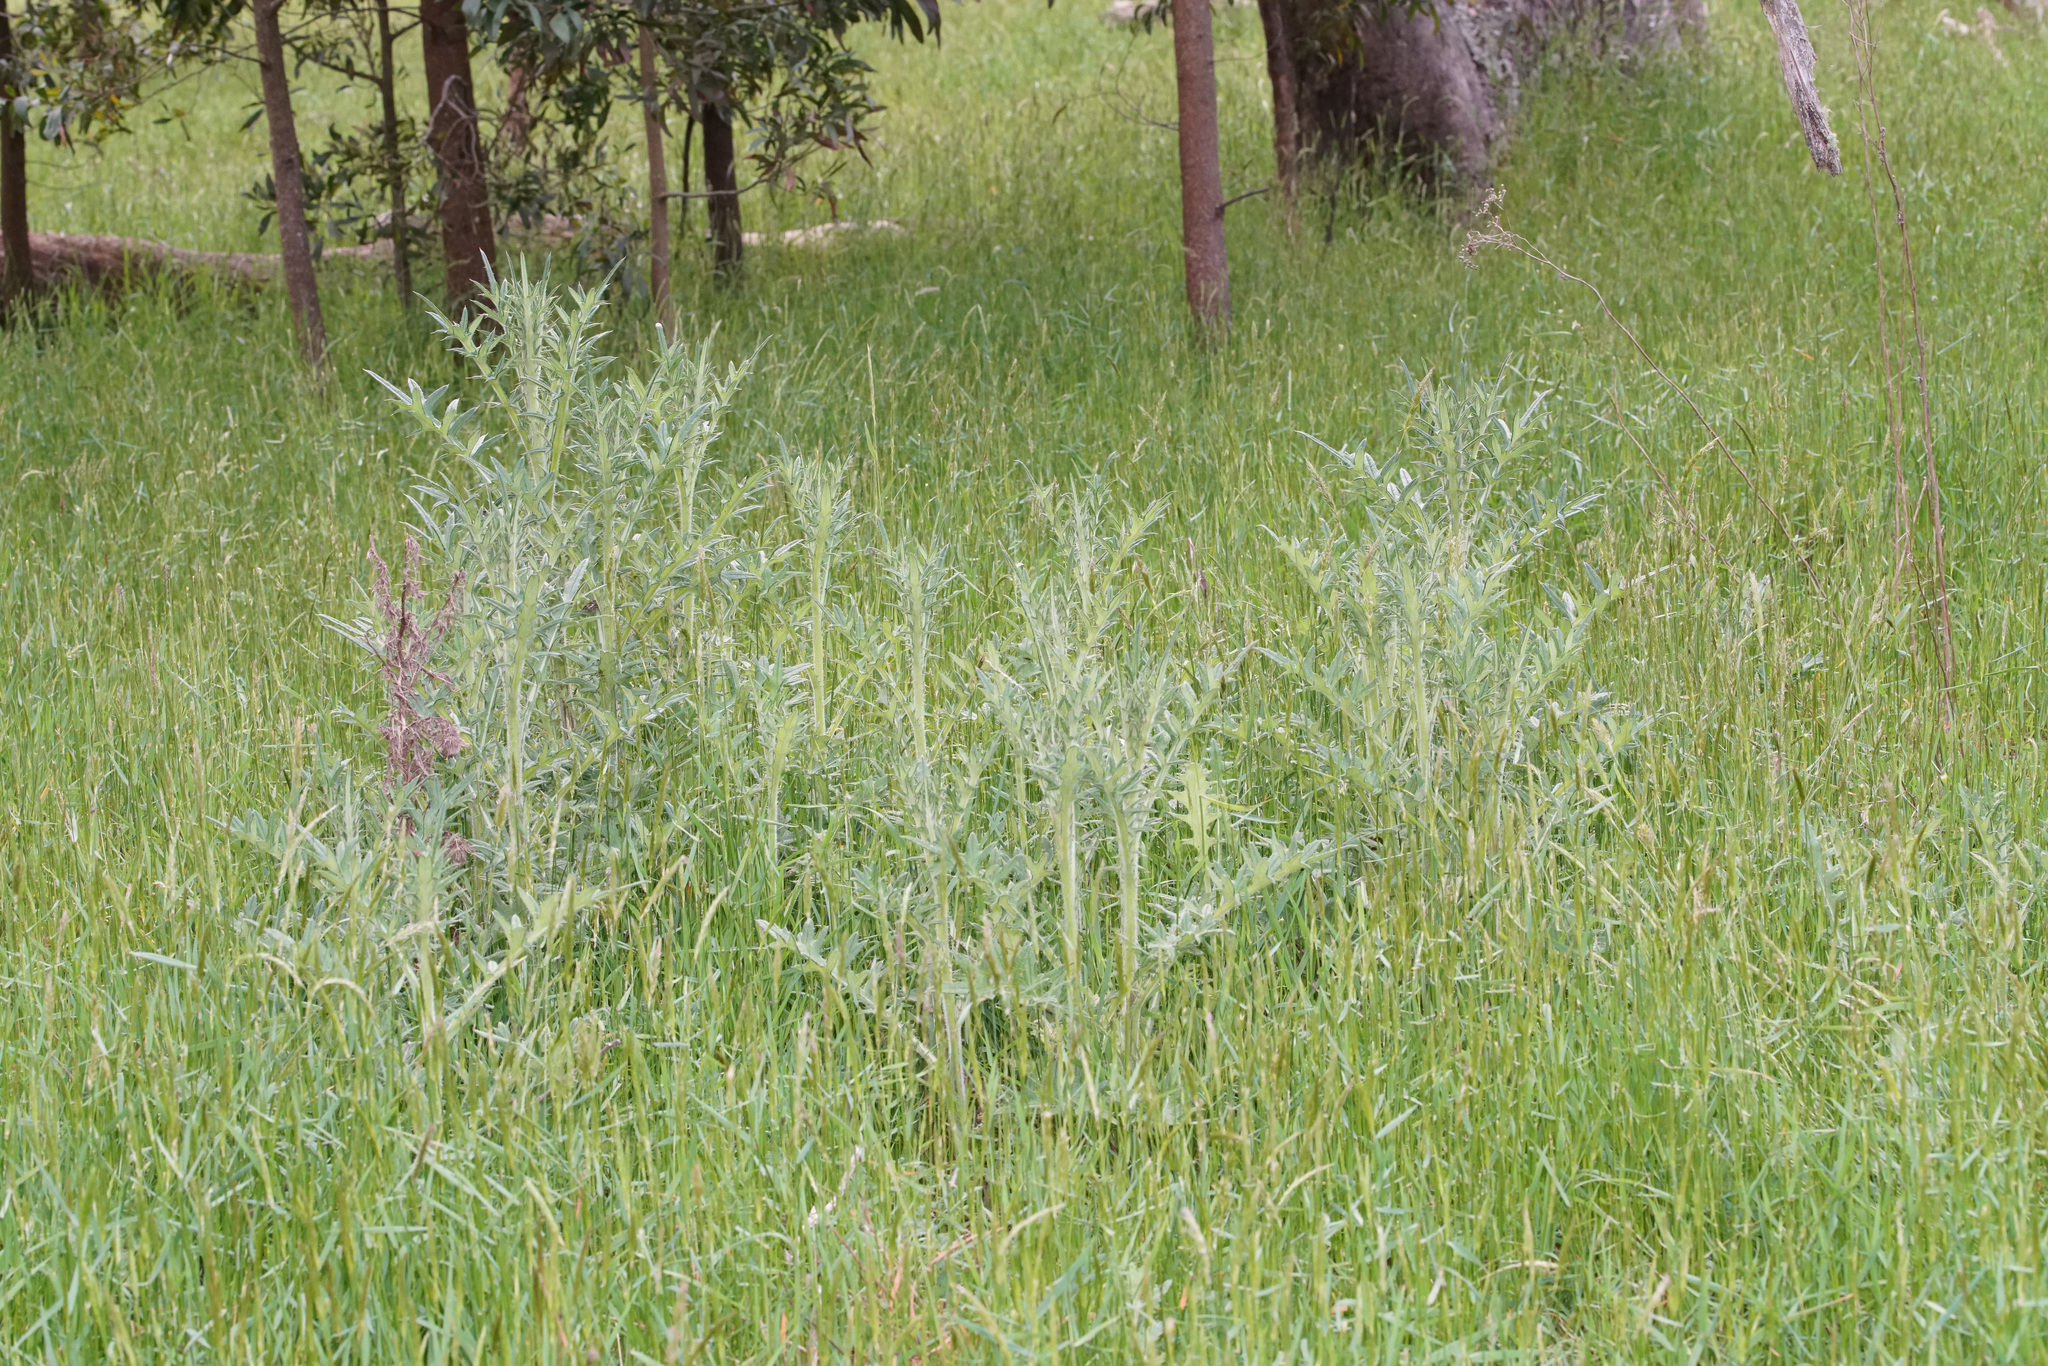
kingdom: Plantae
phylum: Tracheophyta
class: Magnoliopsida
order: Asterales
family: Asteraceae
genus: Cirsium
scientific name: Cirsium vulgare
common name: Bull thistle
